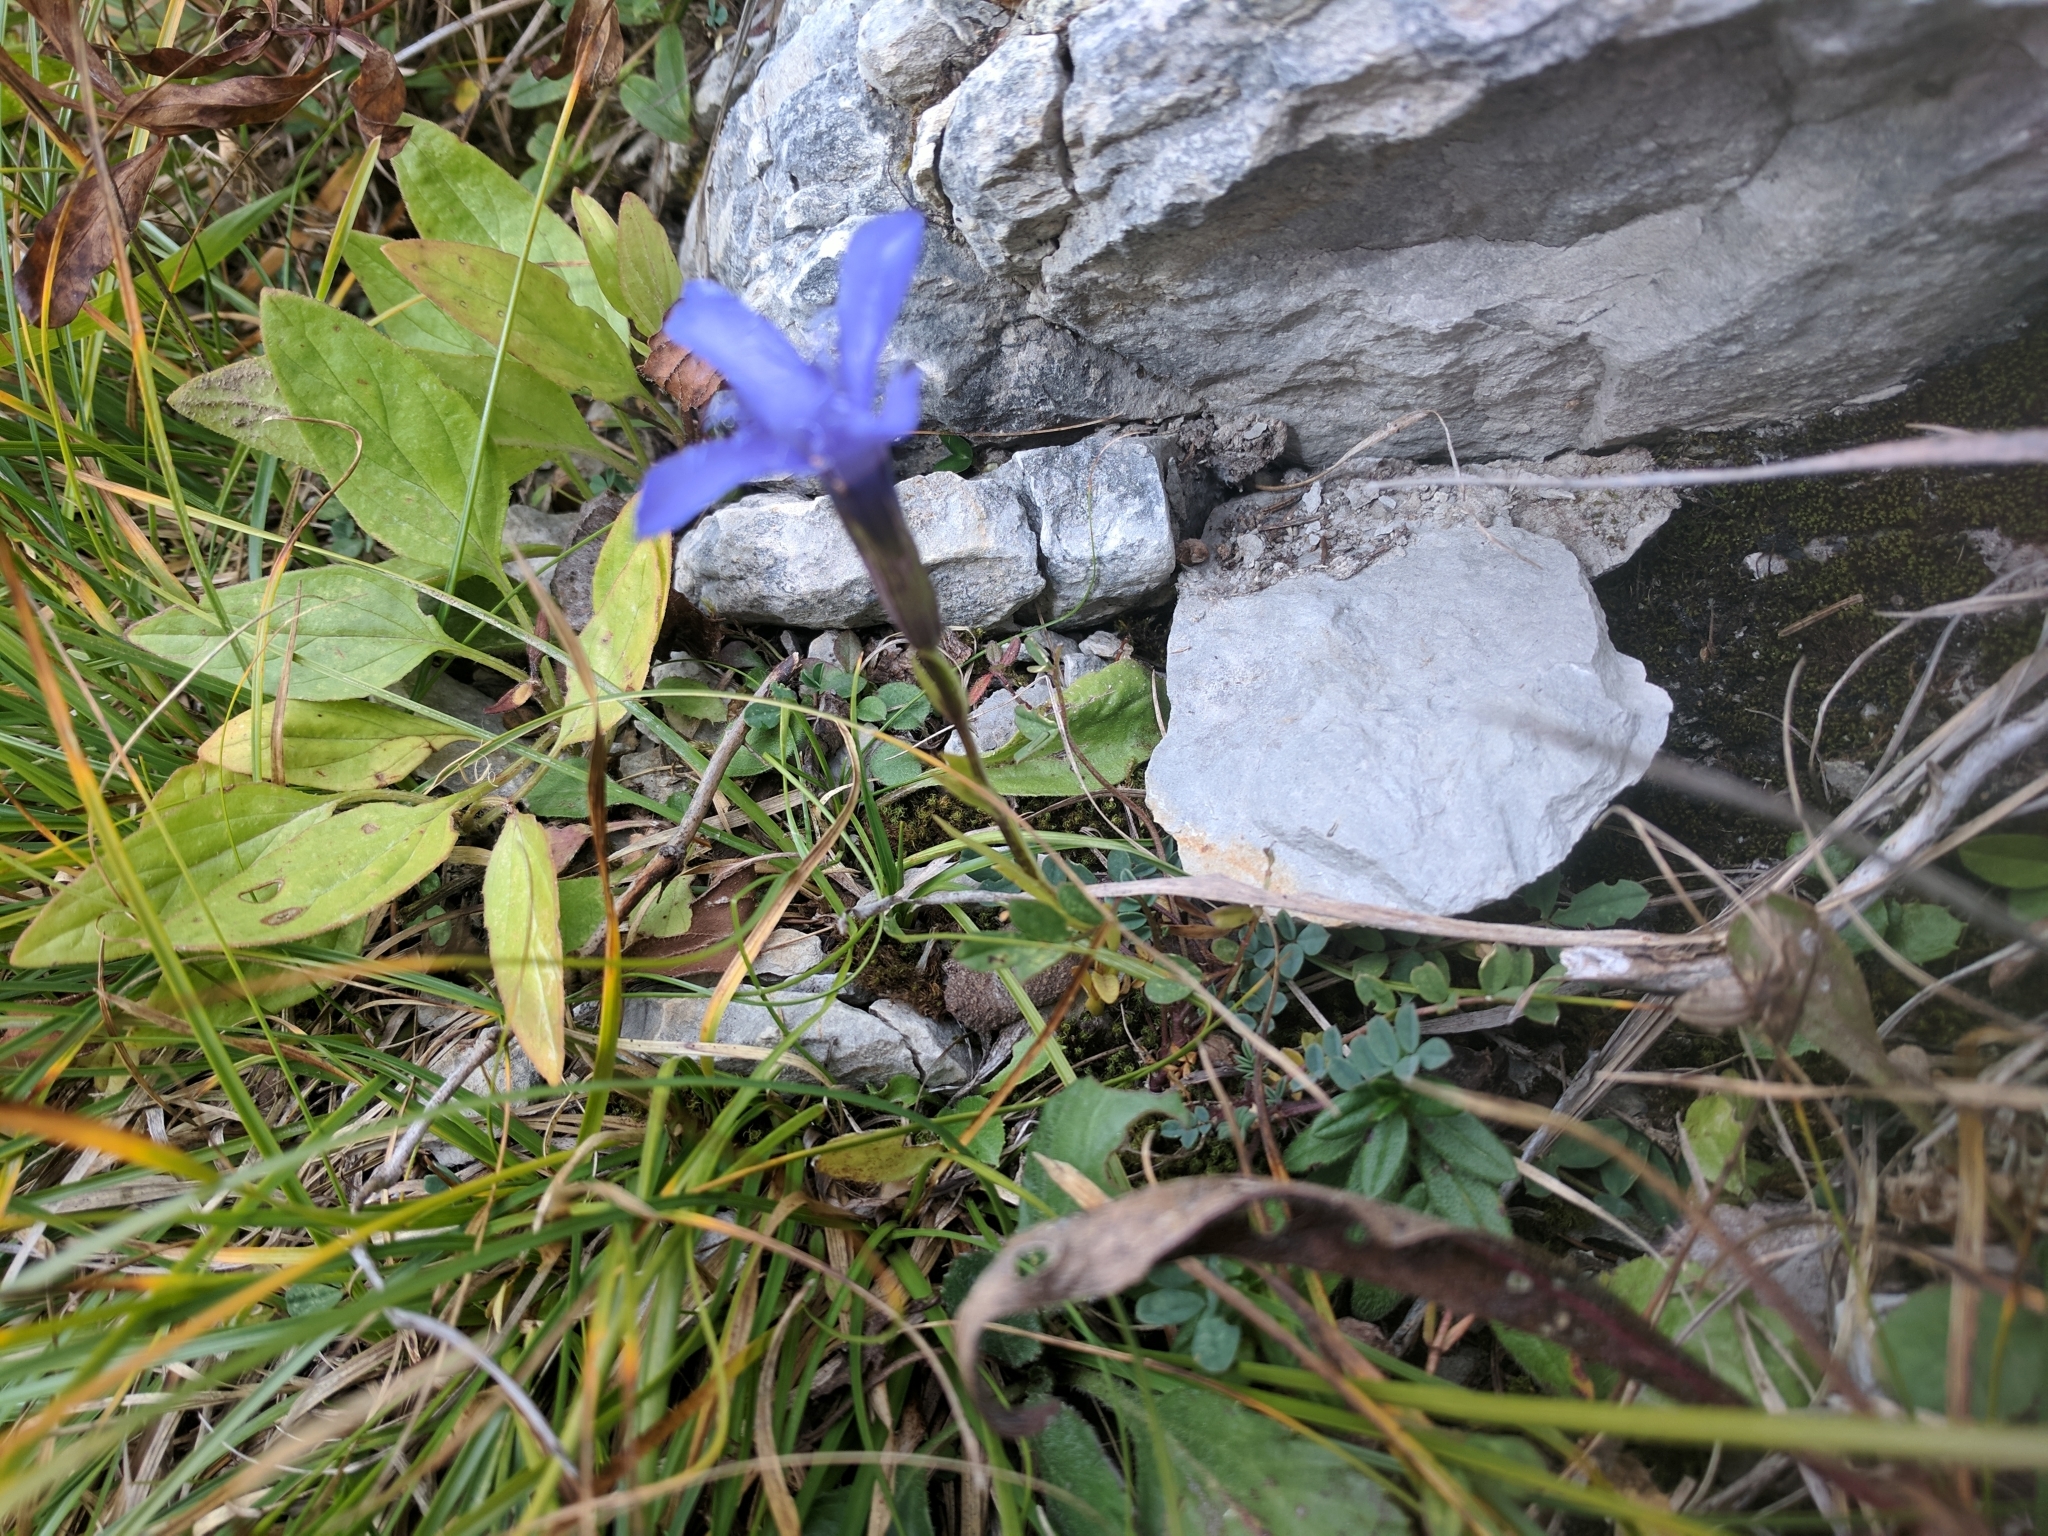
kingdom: Plantae
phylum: Tracheophyta
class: Magnoliopsida
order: Gentianales
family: Gentianaceae
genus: Gentianopsis
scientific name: Gentianopsis ciliata
